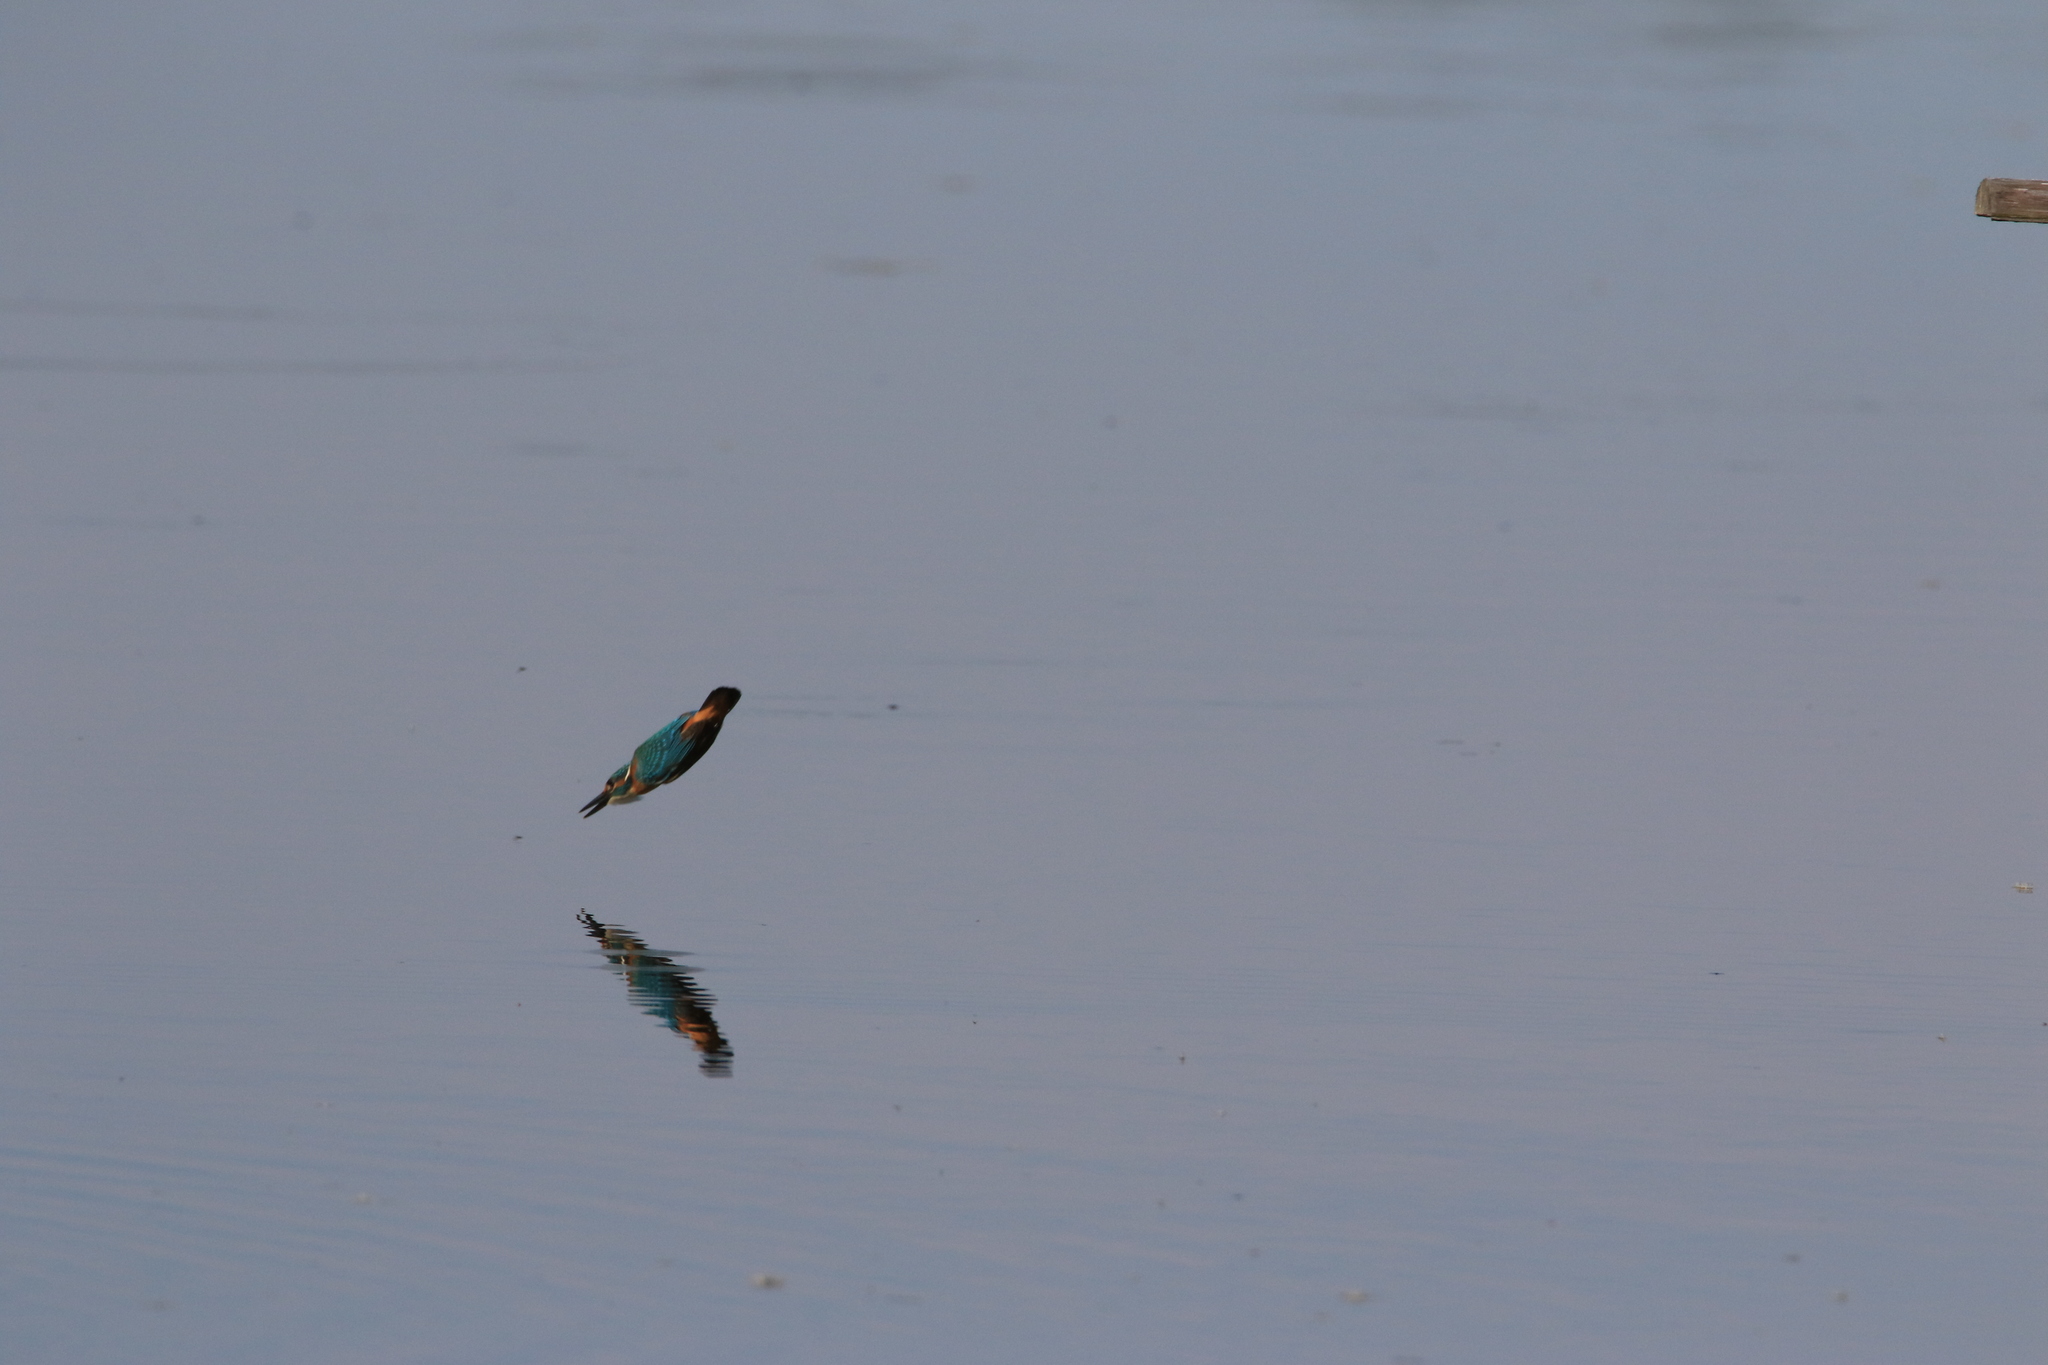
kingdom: Animalia
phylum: Chordata
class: Aves
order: Coraciiformes
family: Alcedinidae
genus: Alcedo
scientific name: Alcedo atthis
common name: Common kingfisher
